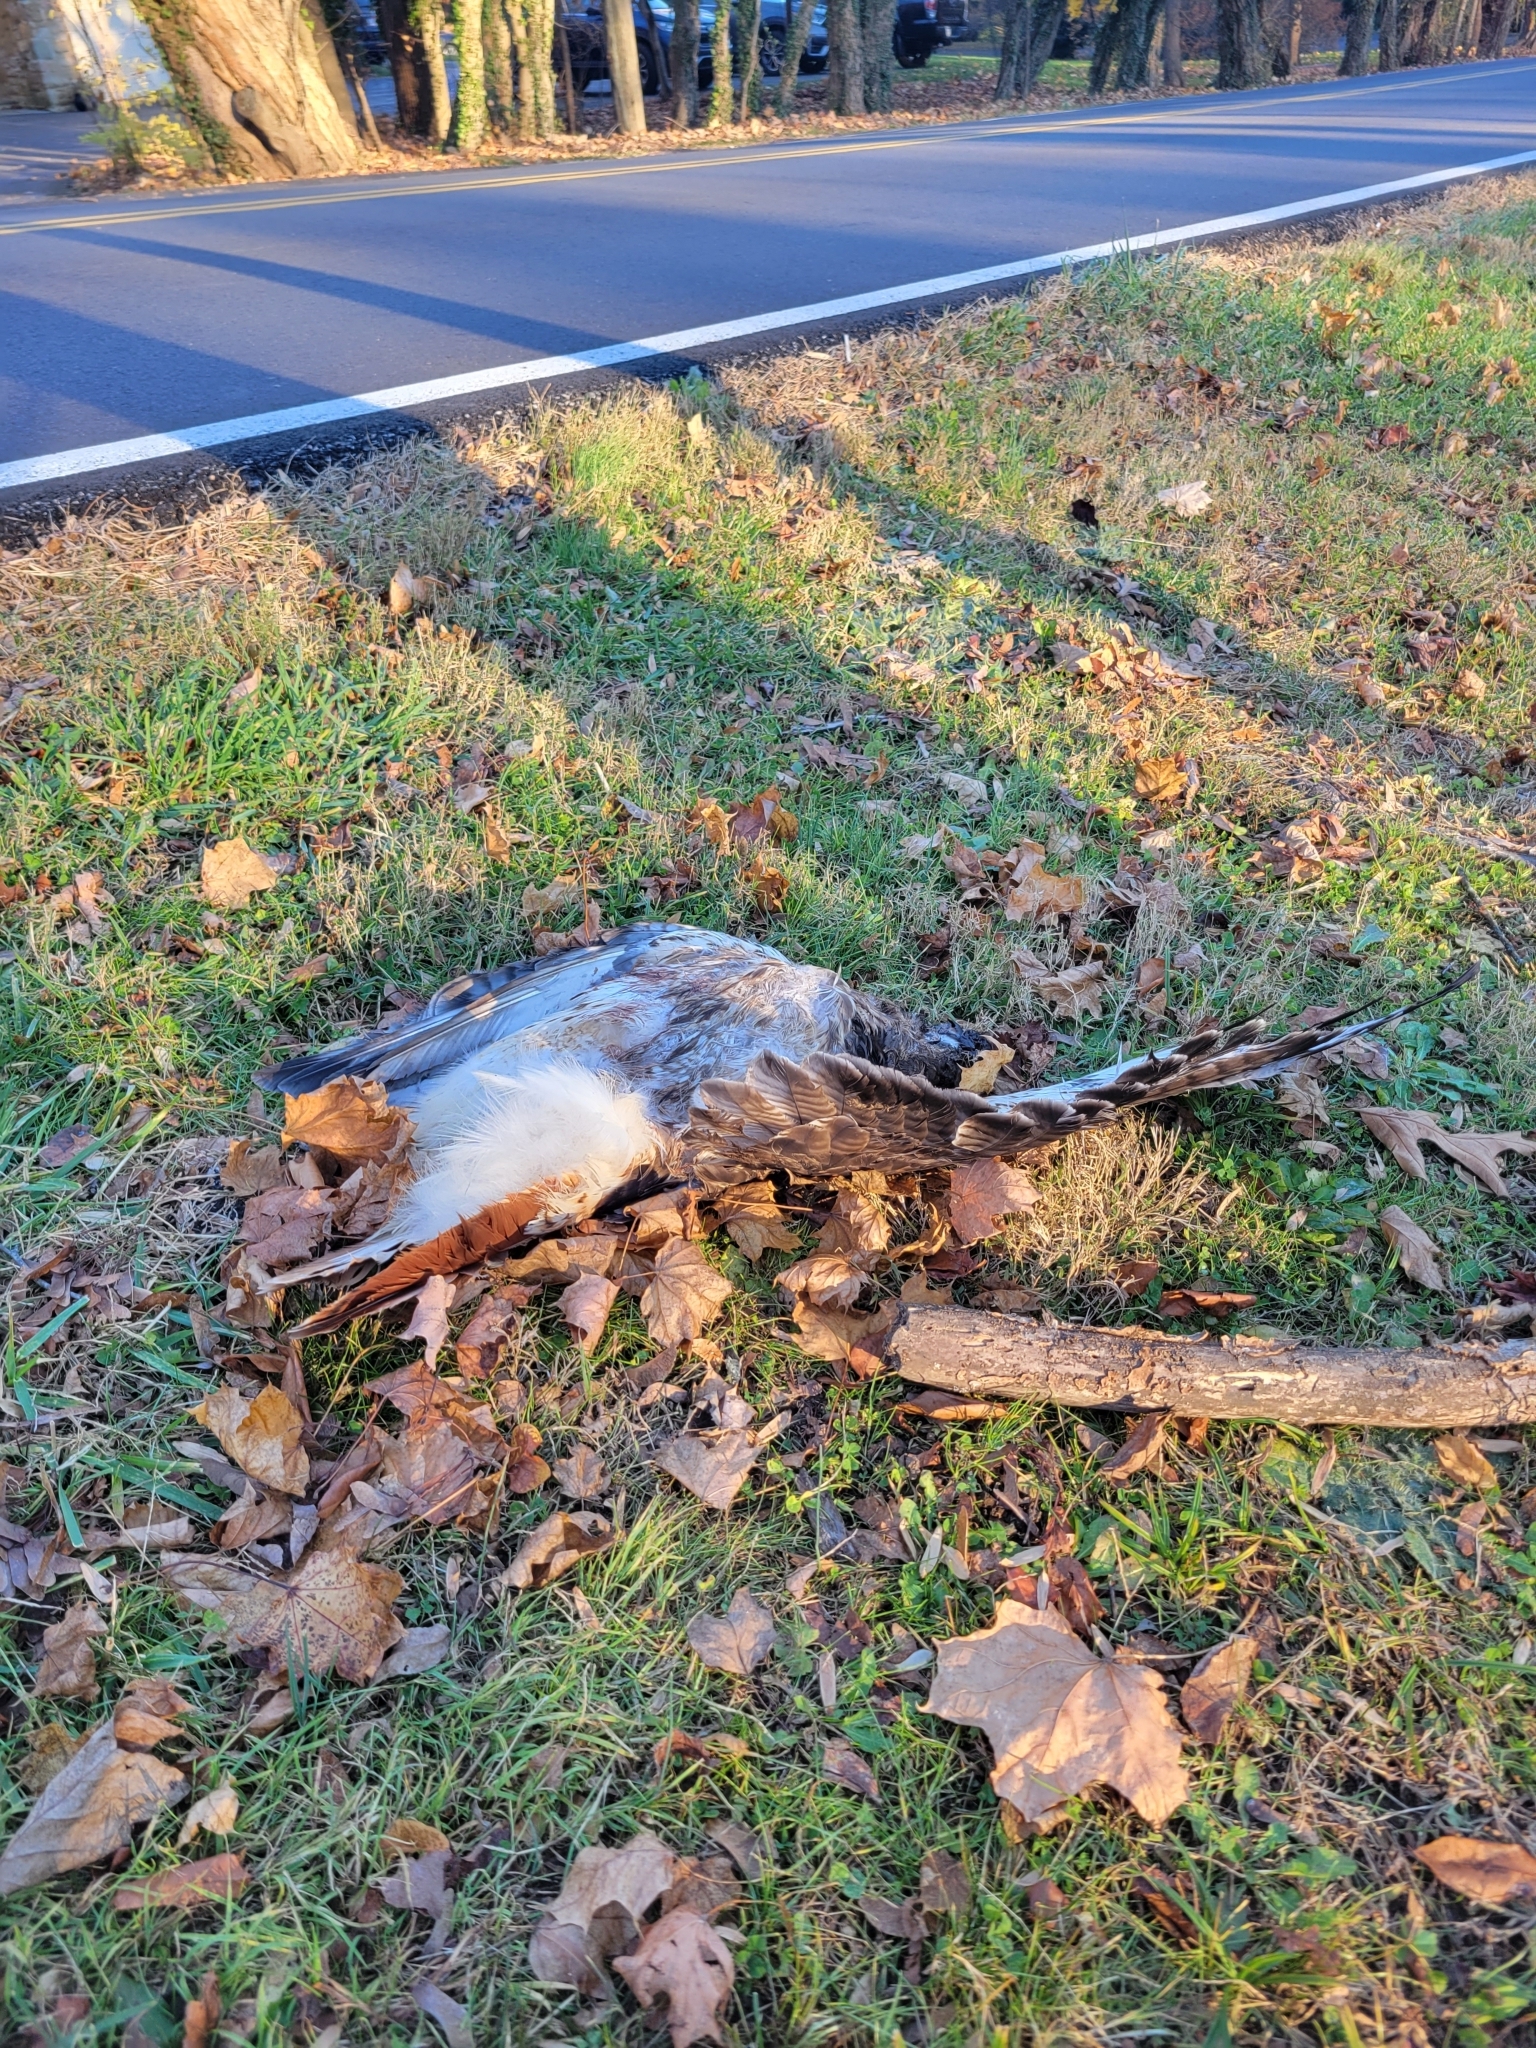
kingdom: Animalia
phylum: Chordata
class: Aves
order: Accipitriformes
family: Accipitridae
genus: Buteo
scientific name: Buteo jamaicensis
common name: Red-tailed hawk
